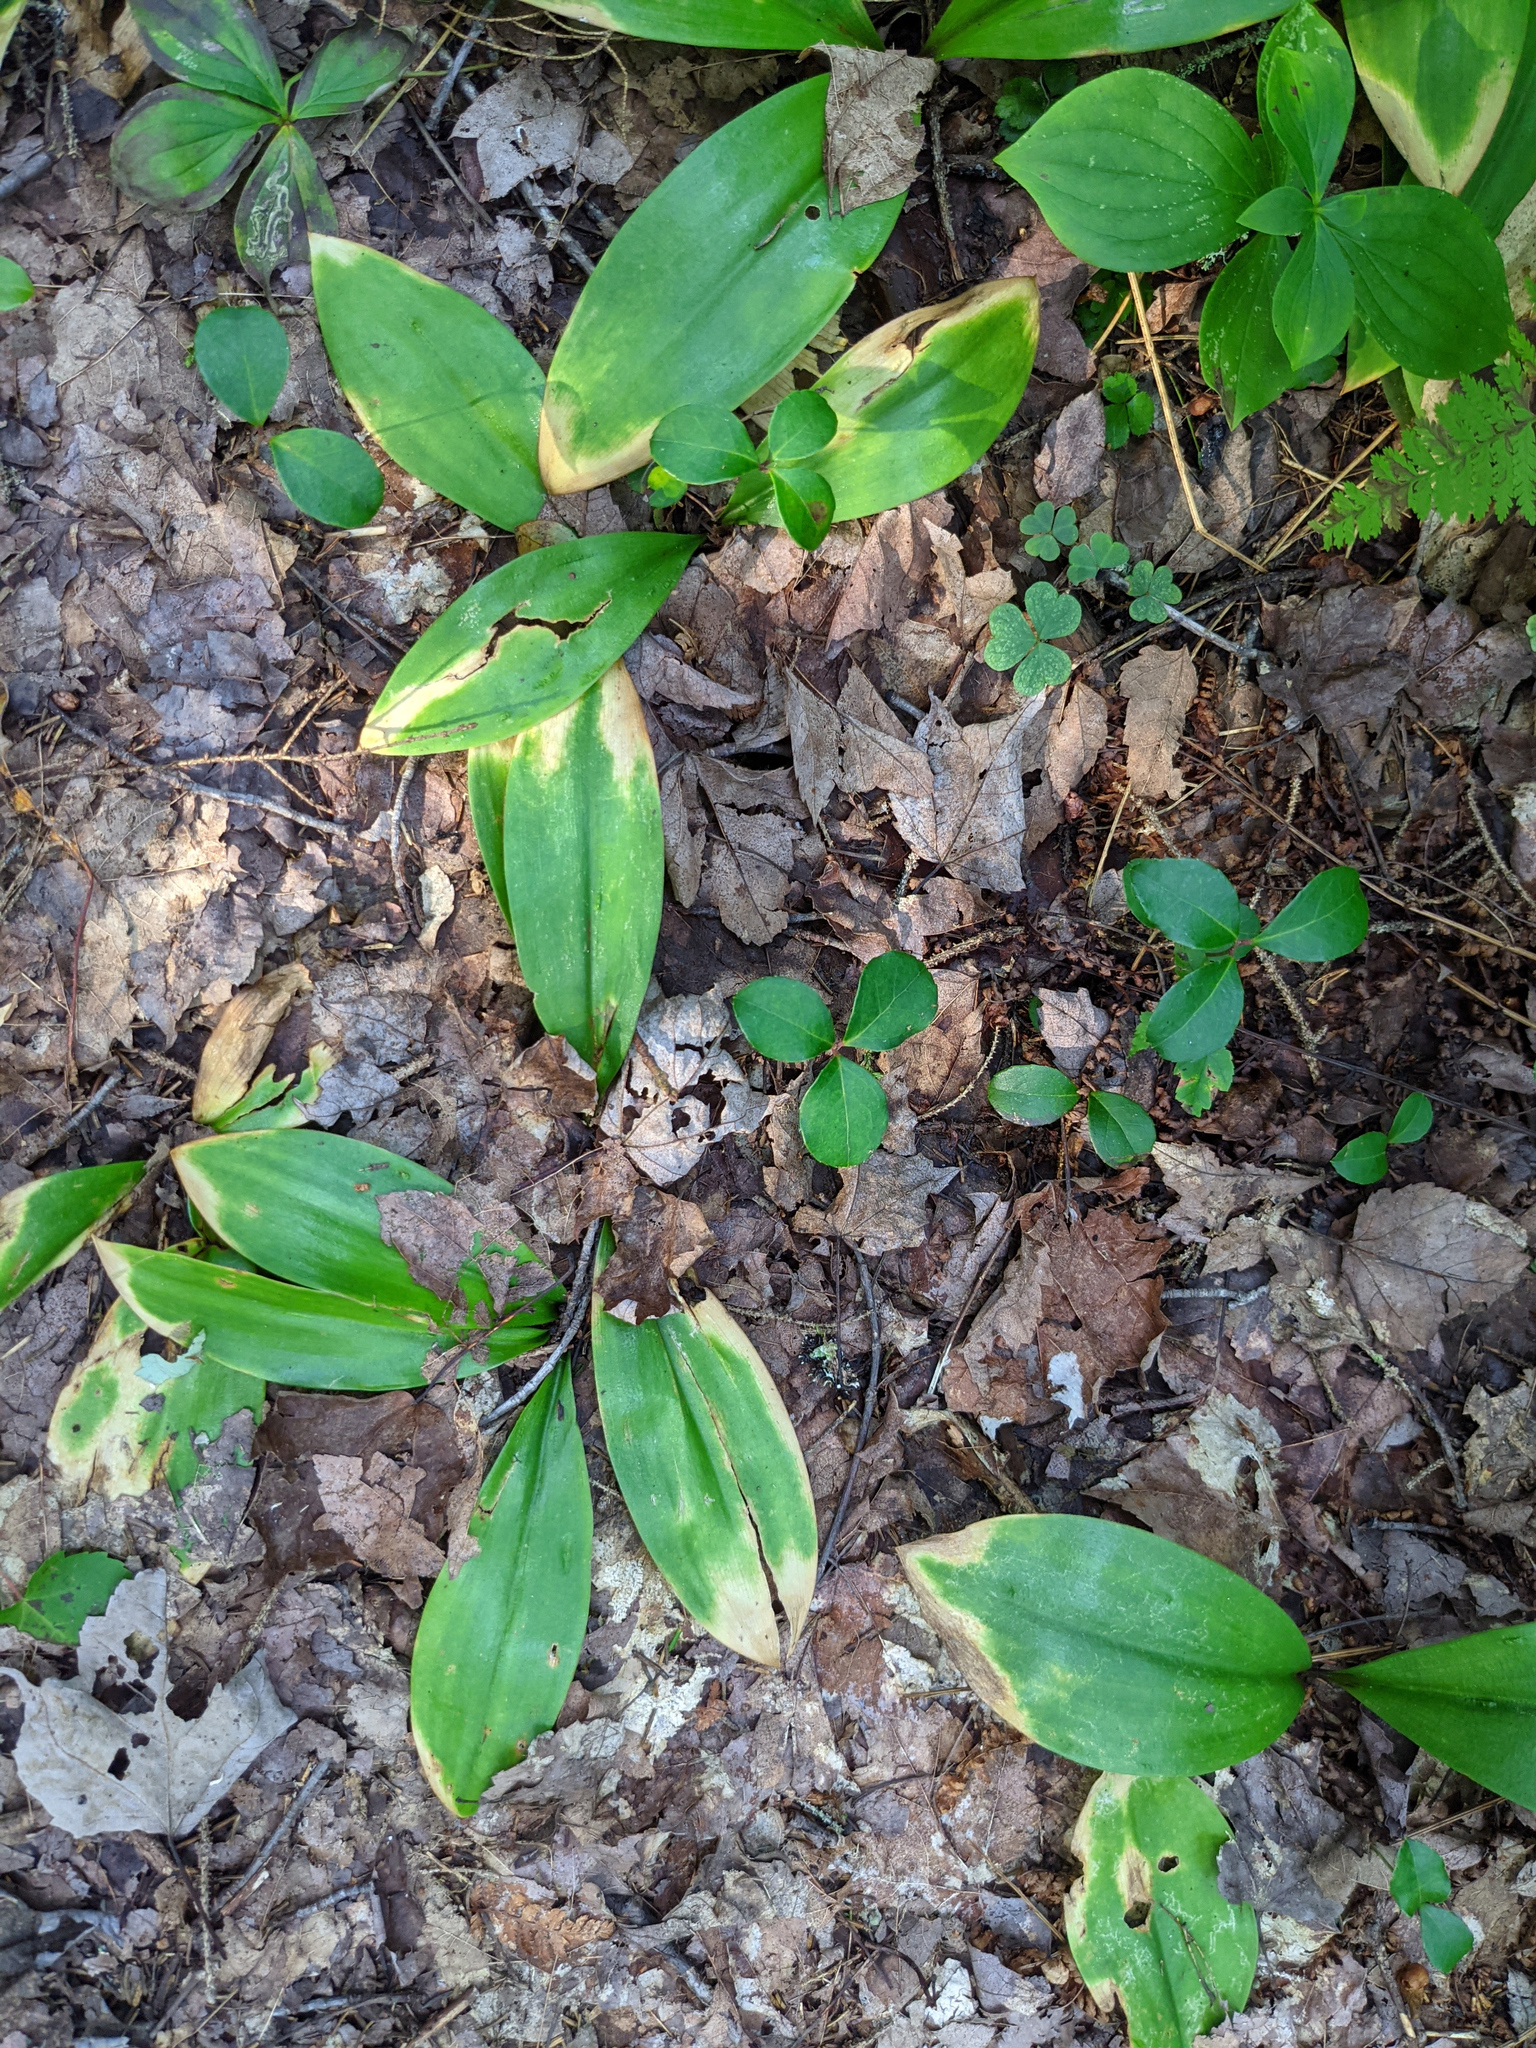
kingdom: Plantae
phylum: Tracheophyta
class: Magnoliopsida
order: Ericales
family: Ericaceae
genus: Gaultheria
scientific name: Gaultheria procumbens
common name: Checkerberry
